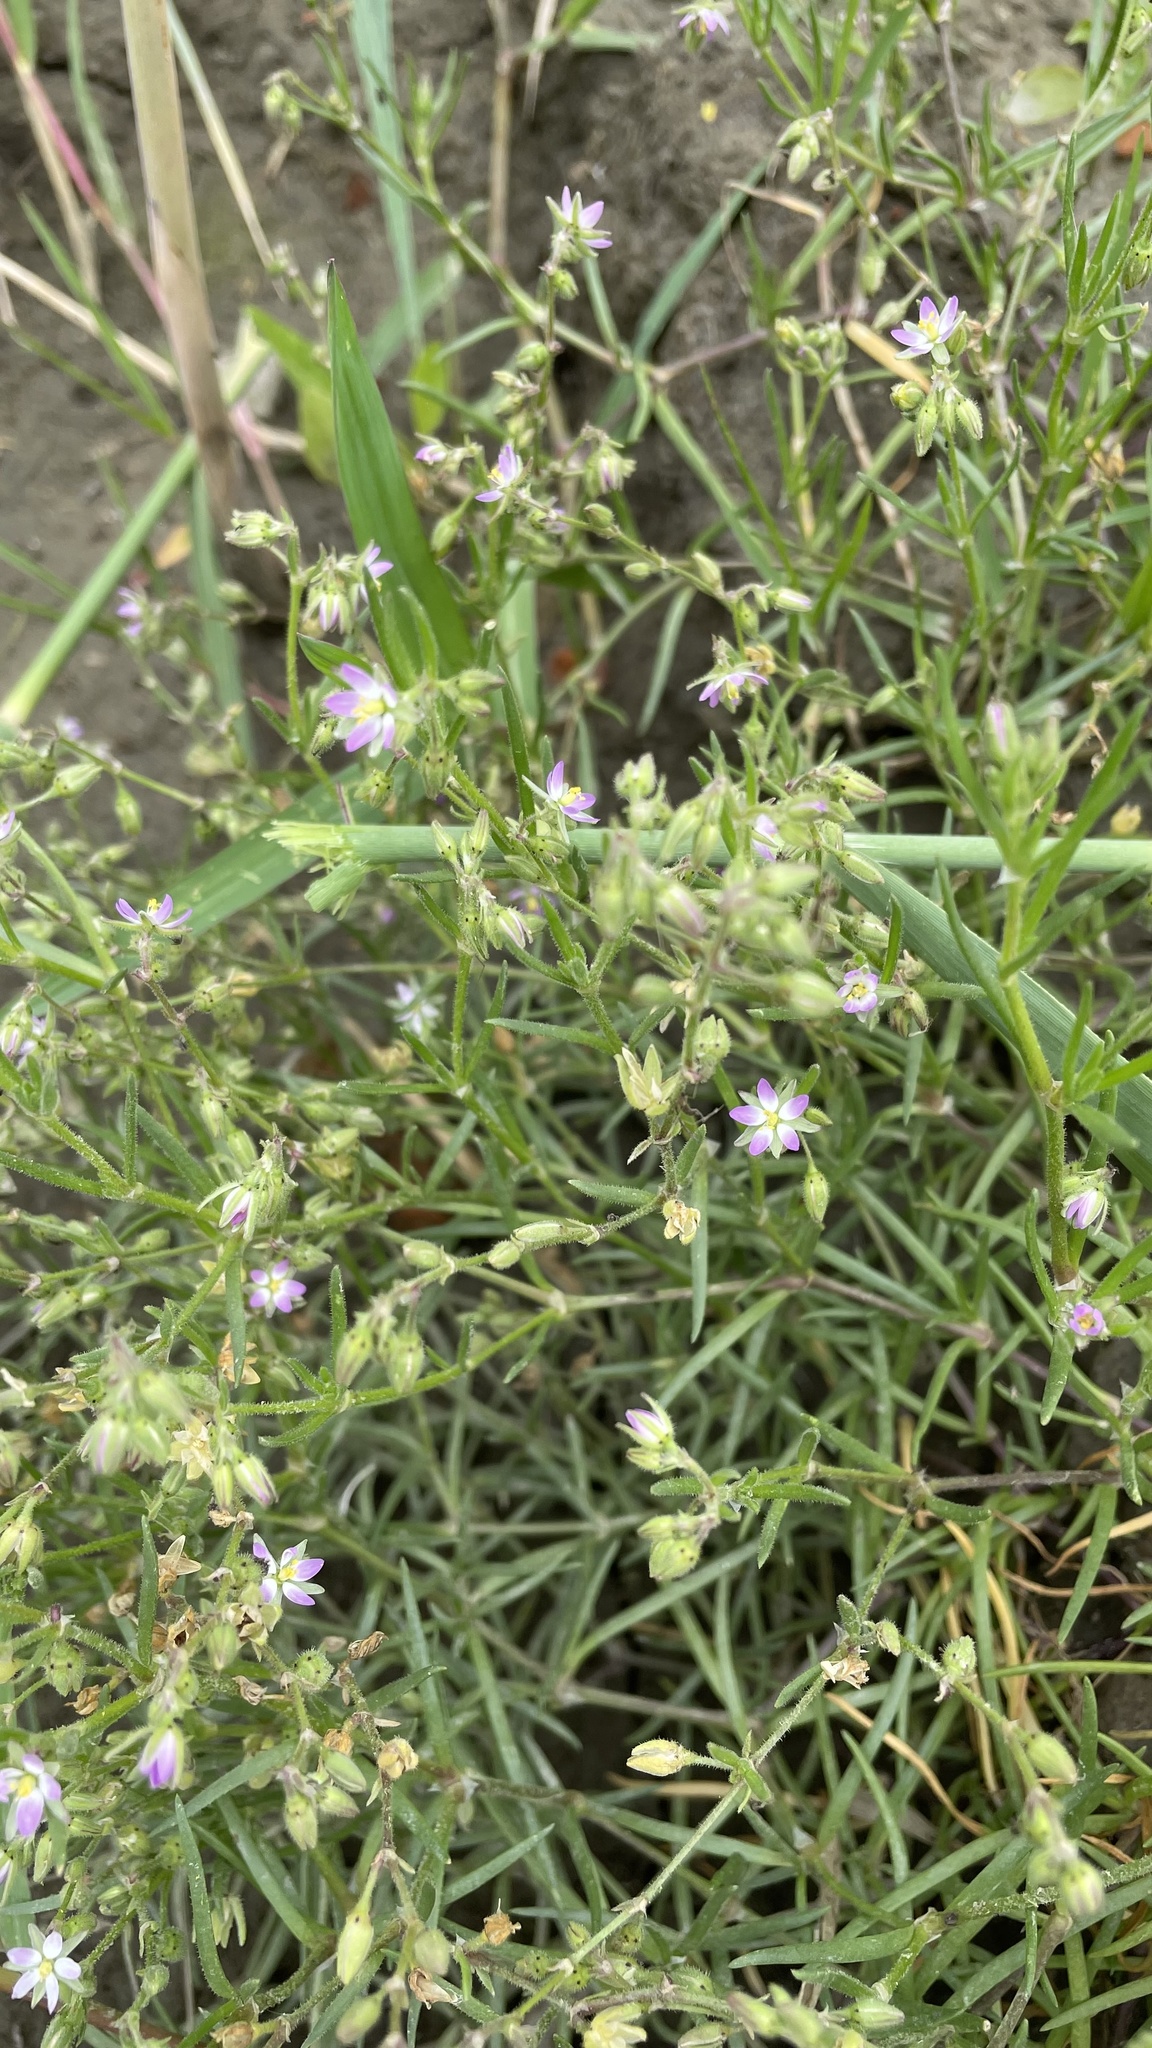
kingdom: Plantae
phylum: Tracheophyta
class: Magnoliopsida
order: Caryophyllales
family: Caryophyllaceae
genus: Spergularia
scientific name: Spergularia marina
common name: Lesser sea-spurrey
